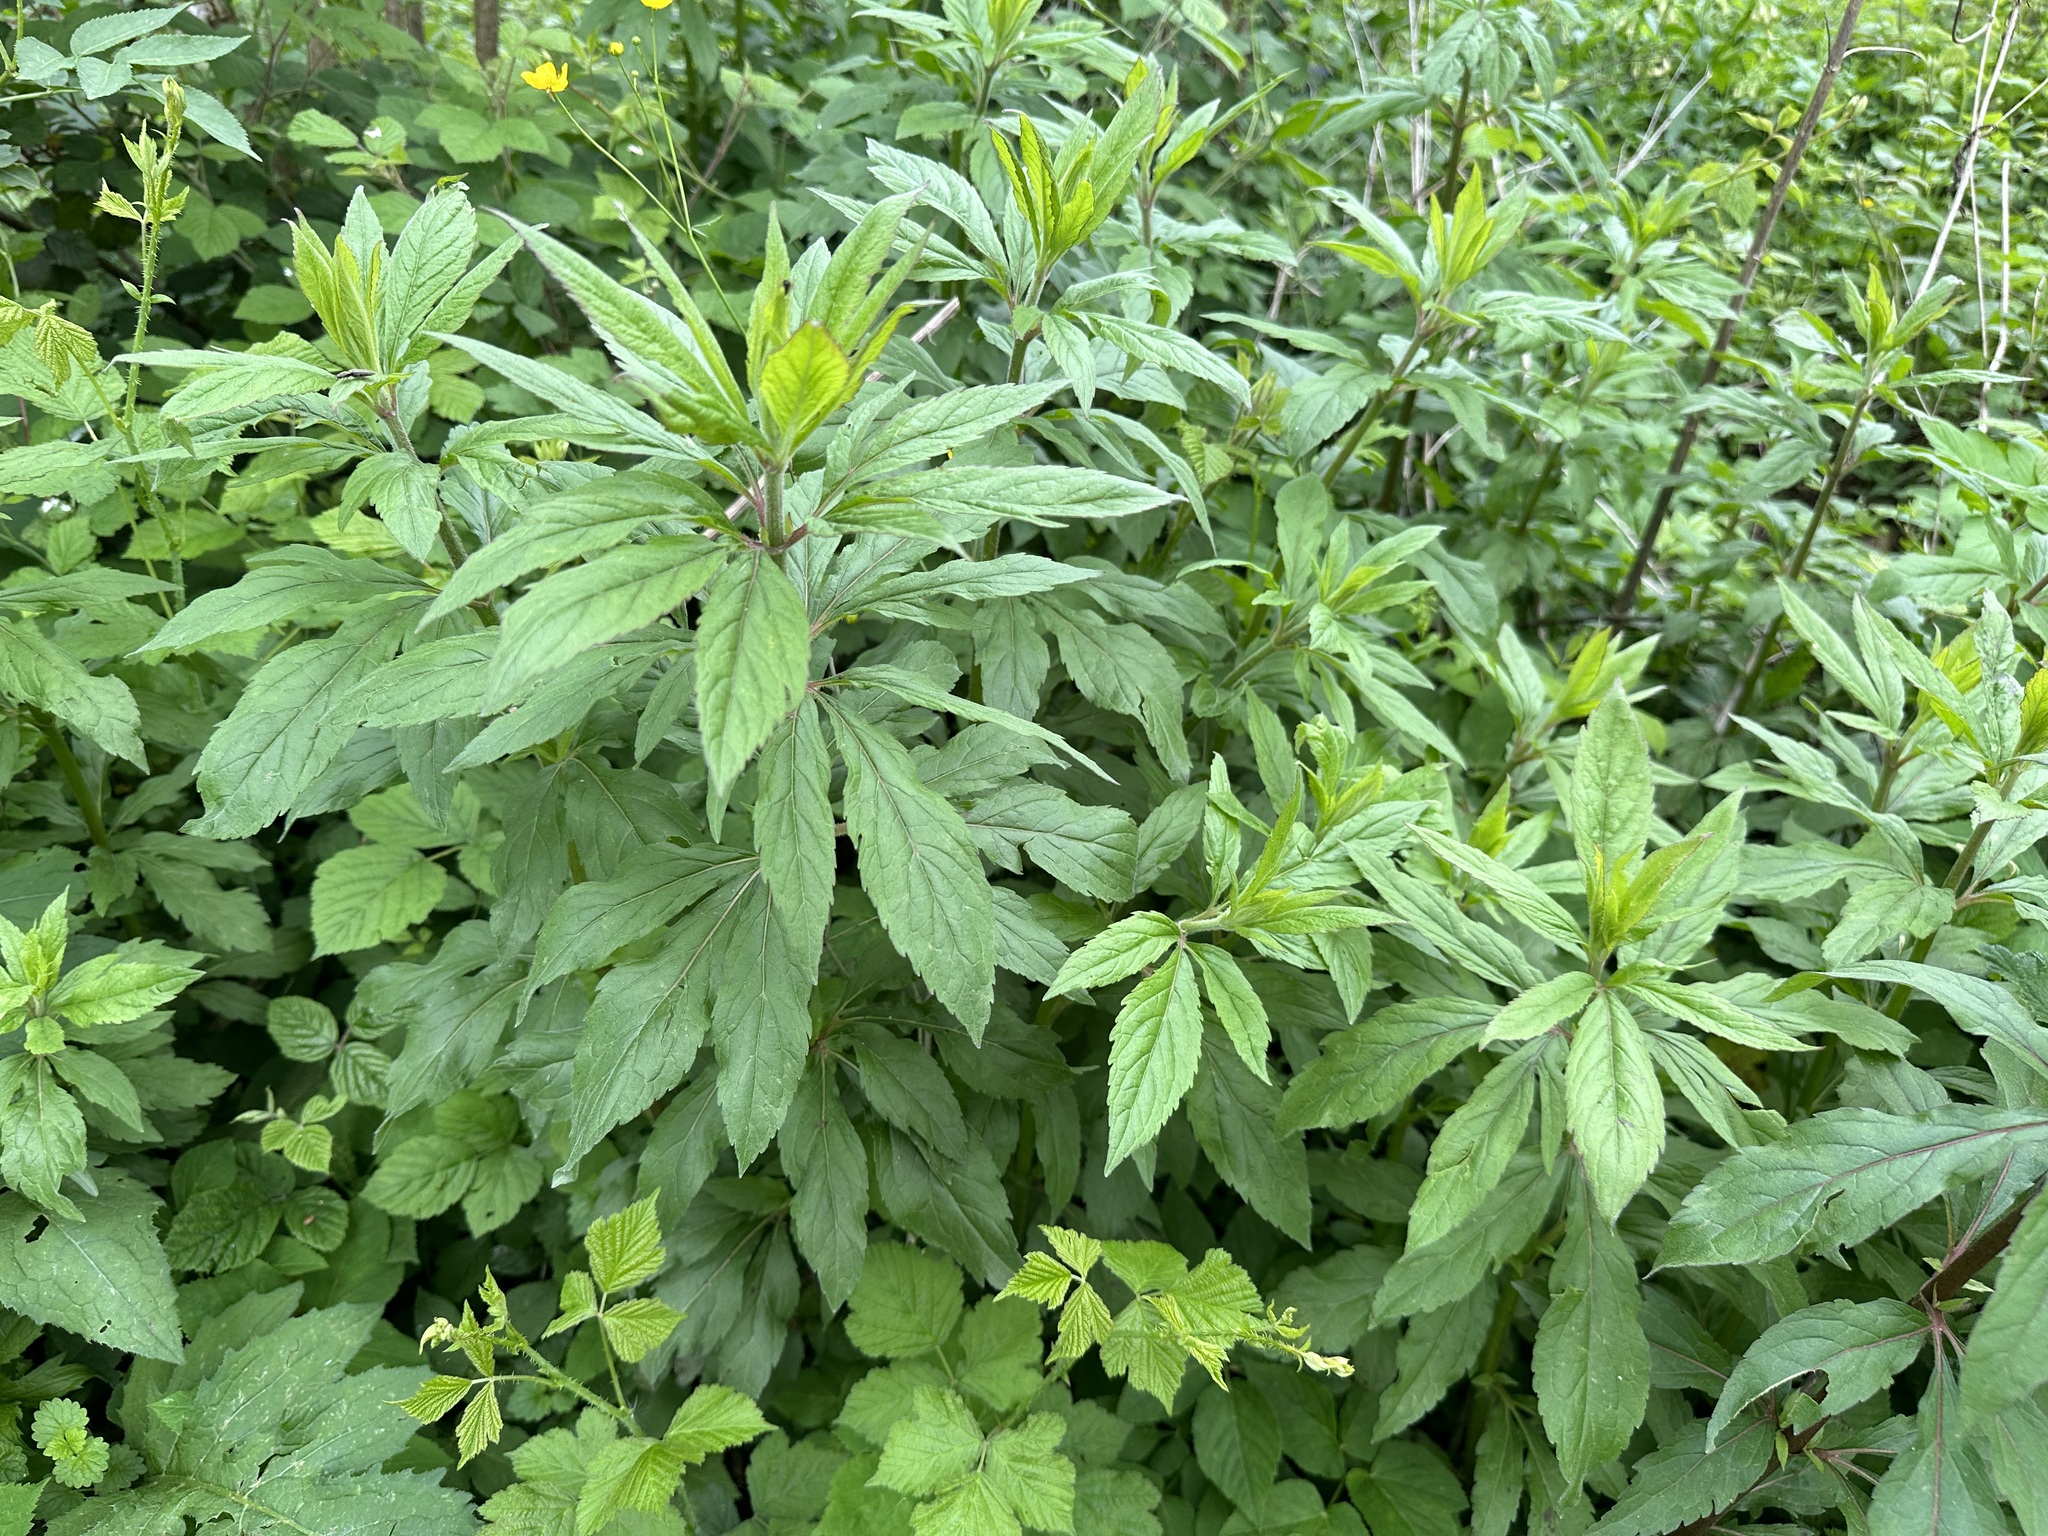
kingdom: Plantae
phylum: Tracheophyta
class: Magnoliopsida
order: Asterales
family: Asteraceae
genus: Eupatorium
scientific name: Eupatorium cannabinum
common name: Hemp-agrimony
